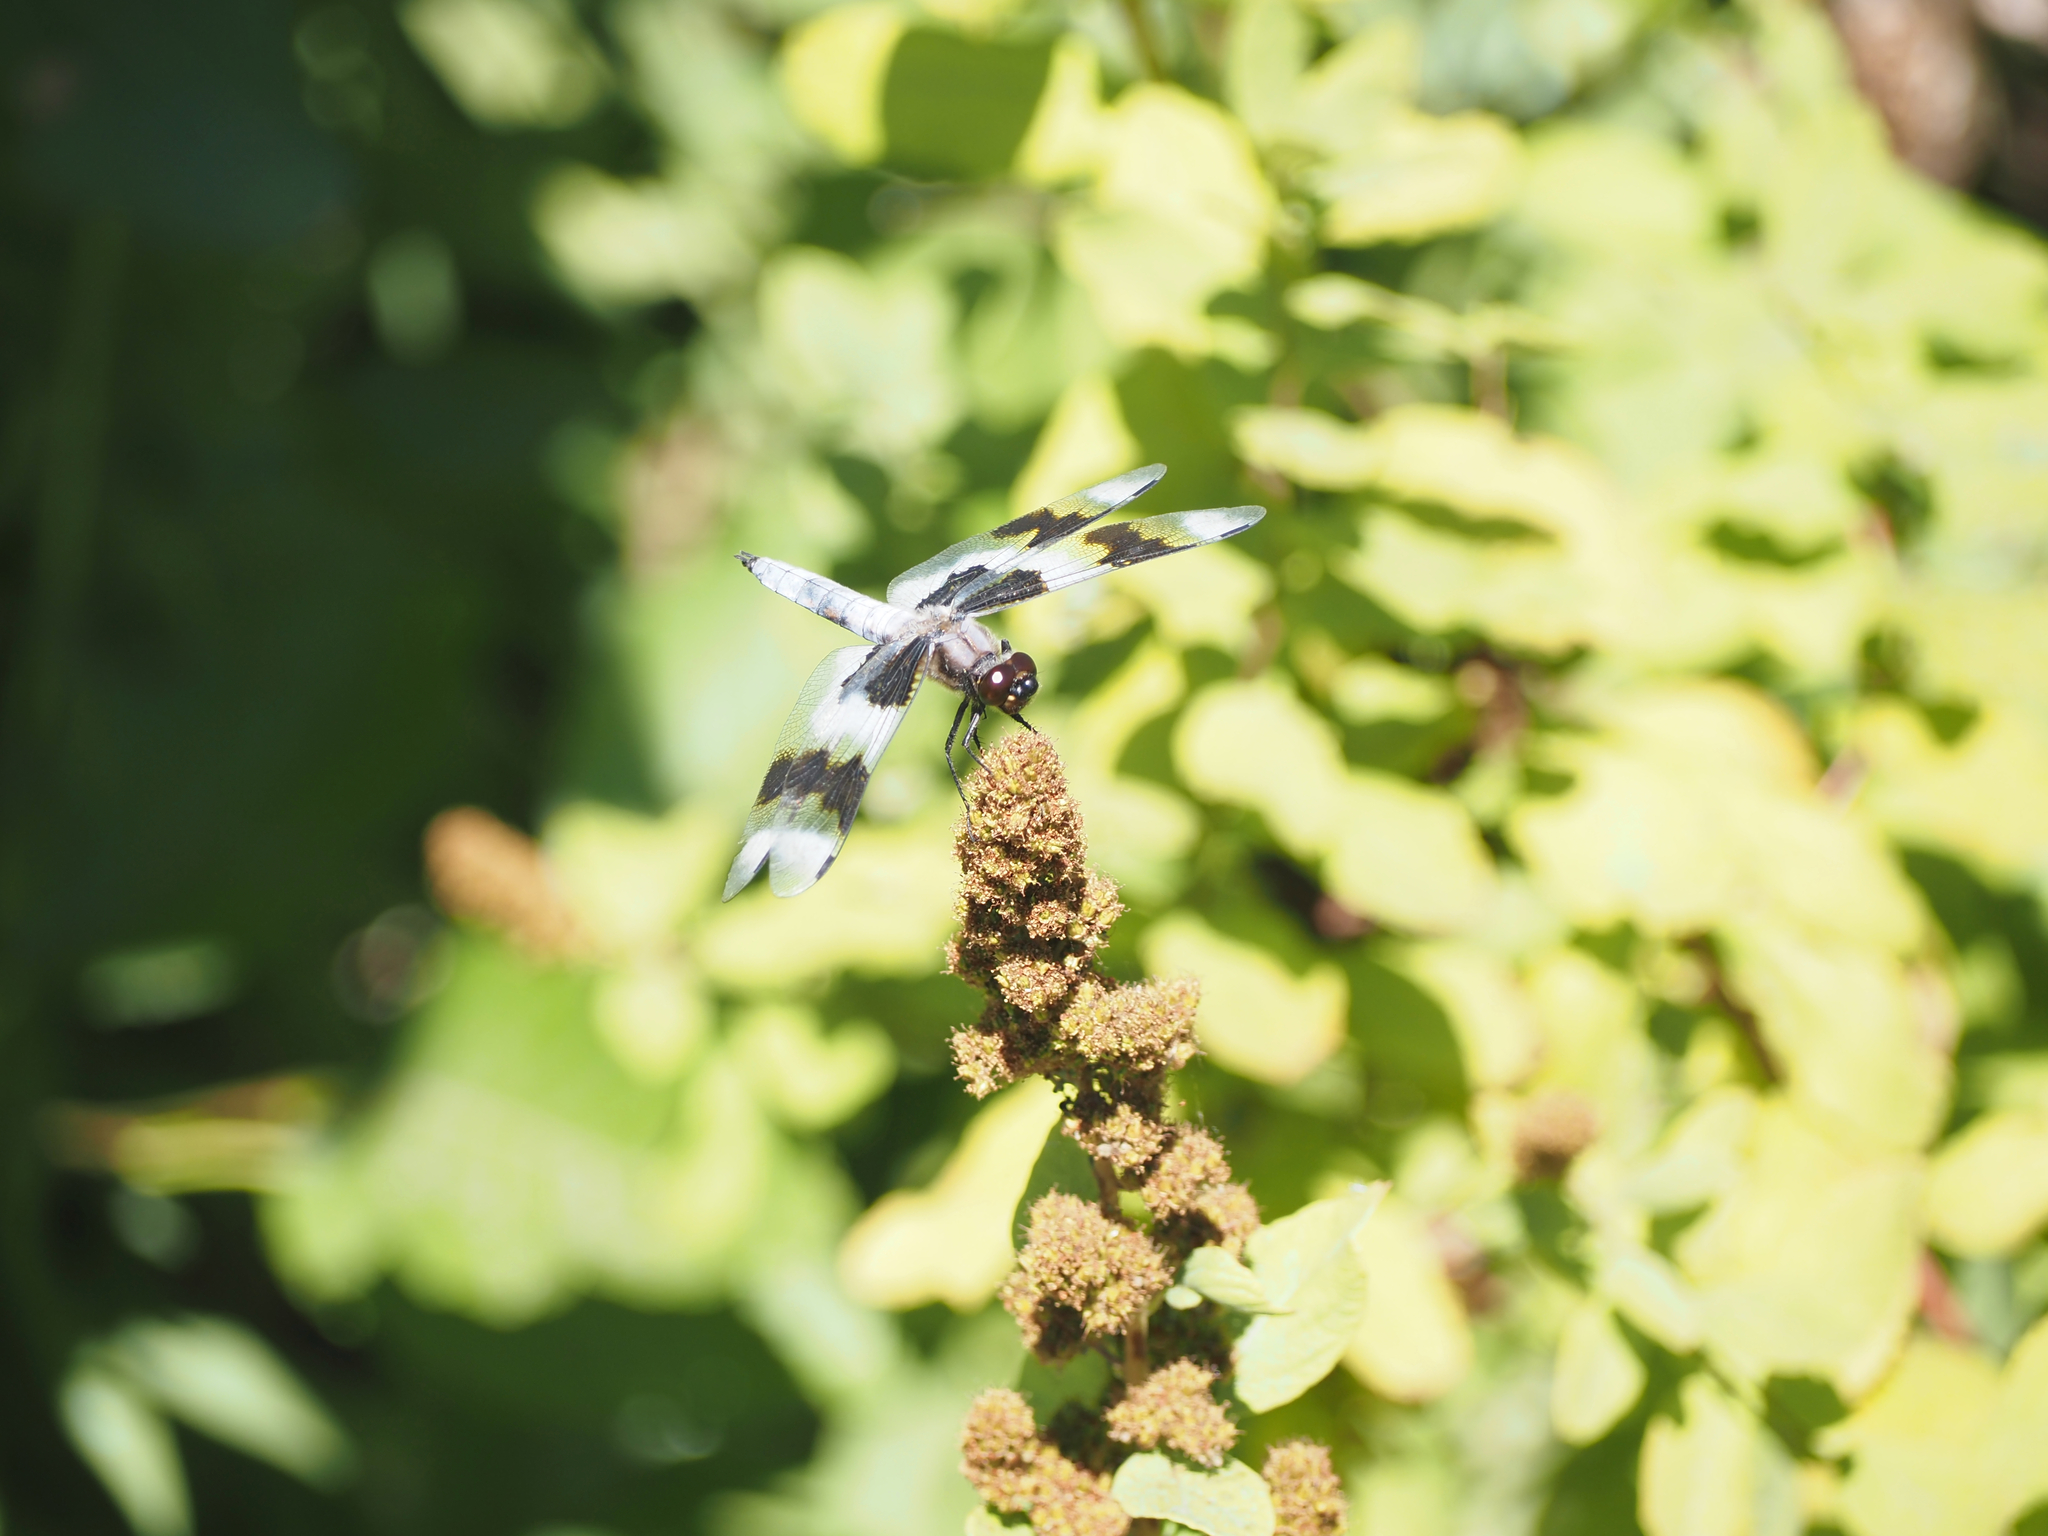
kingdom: Animalia
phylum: Arthropoda
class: Insecta
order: Odonata
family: Libellulidae
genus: Libellula
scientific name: Libellula forensis
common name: Eight-spotted skimmer
